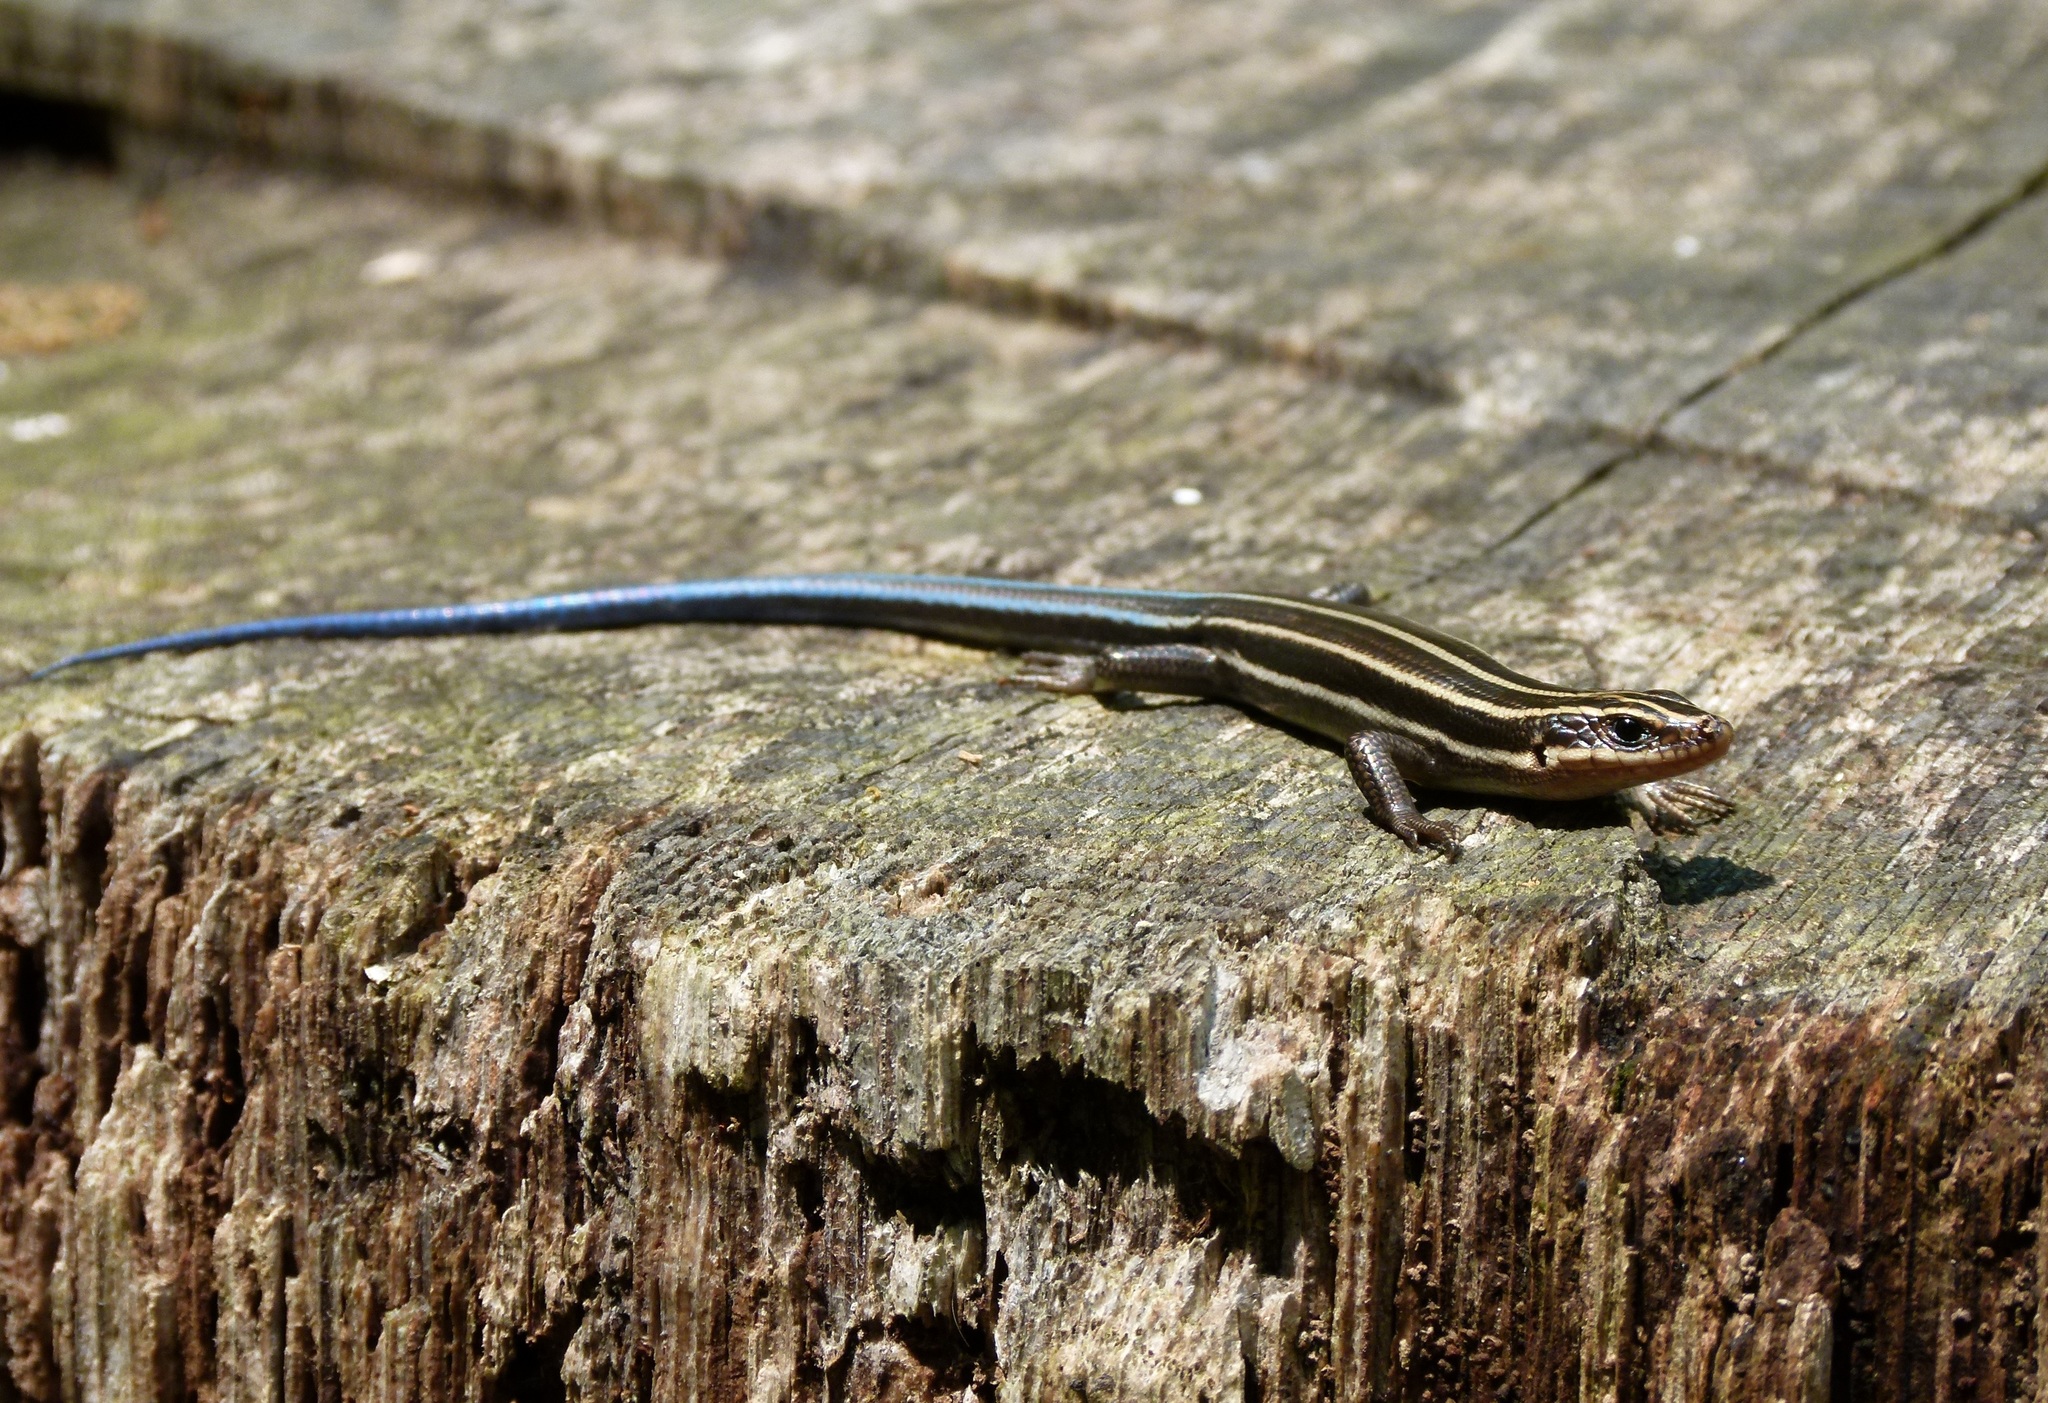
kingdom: Animalia
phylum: Chordata
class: Squamata
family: Scincidae
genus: Plestiodon
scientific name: Plestiodon fasciatus
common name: Five-lined skink
